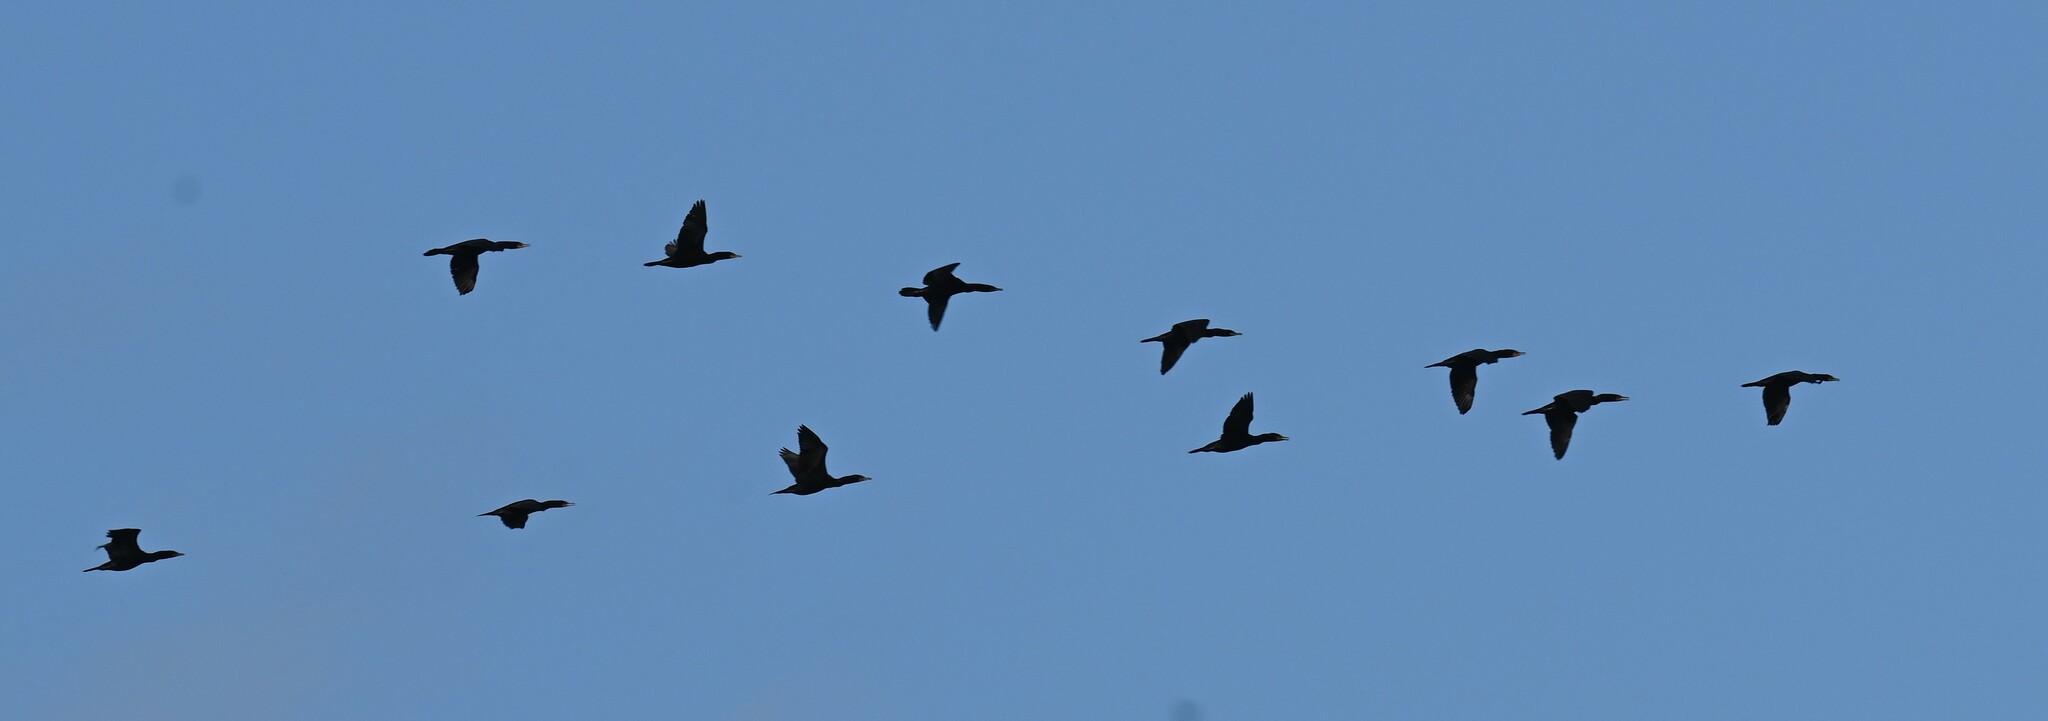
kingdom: Animalia
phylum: Chordata
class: Aves
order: Suliformes
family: Phalacrocoracidae
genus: Phalacrocorax
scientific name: Phalacrocorax auritus
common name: Double-crested cormorant
